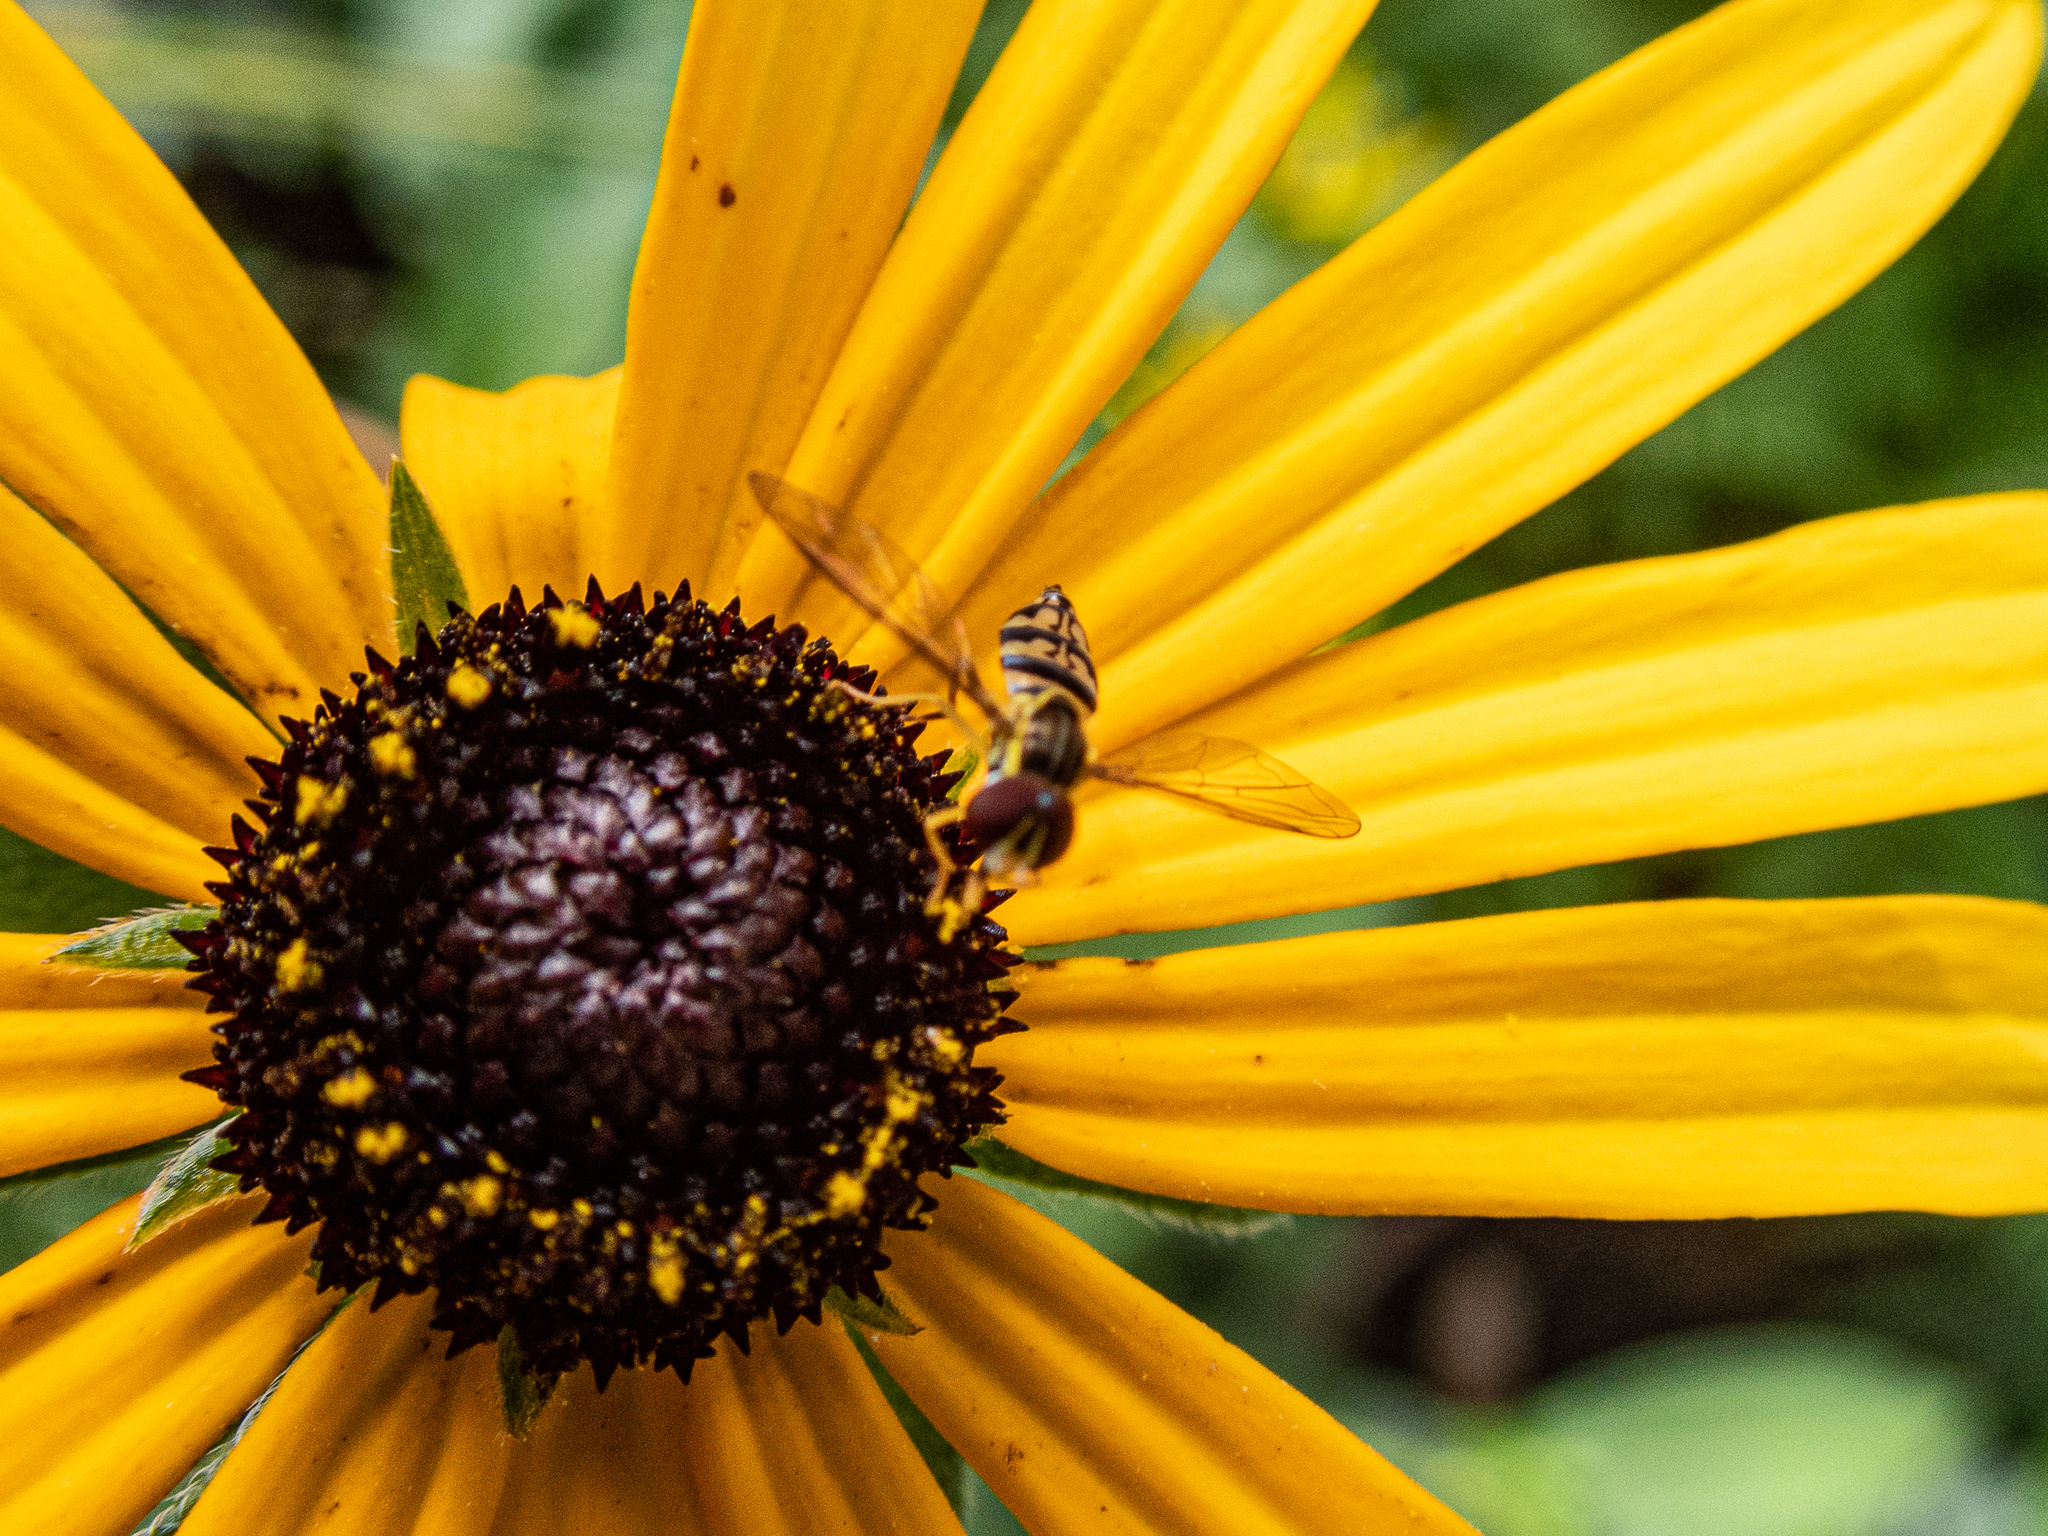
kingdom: Animalia
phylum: Arthropoda
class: Insecta
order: Diptera
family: Syrphidae
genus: Toxomerus
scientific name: Toxomerus geminatus
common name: Eastern calligrapher
